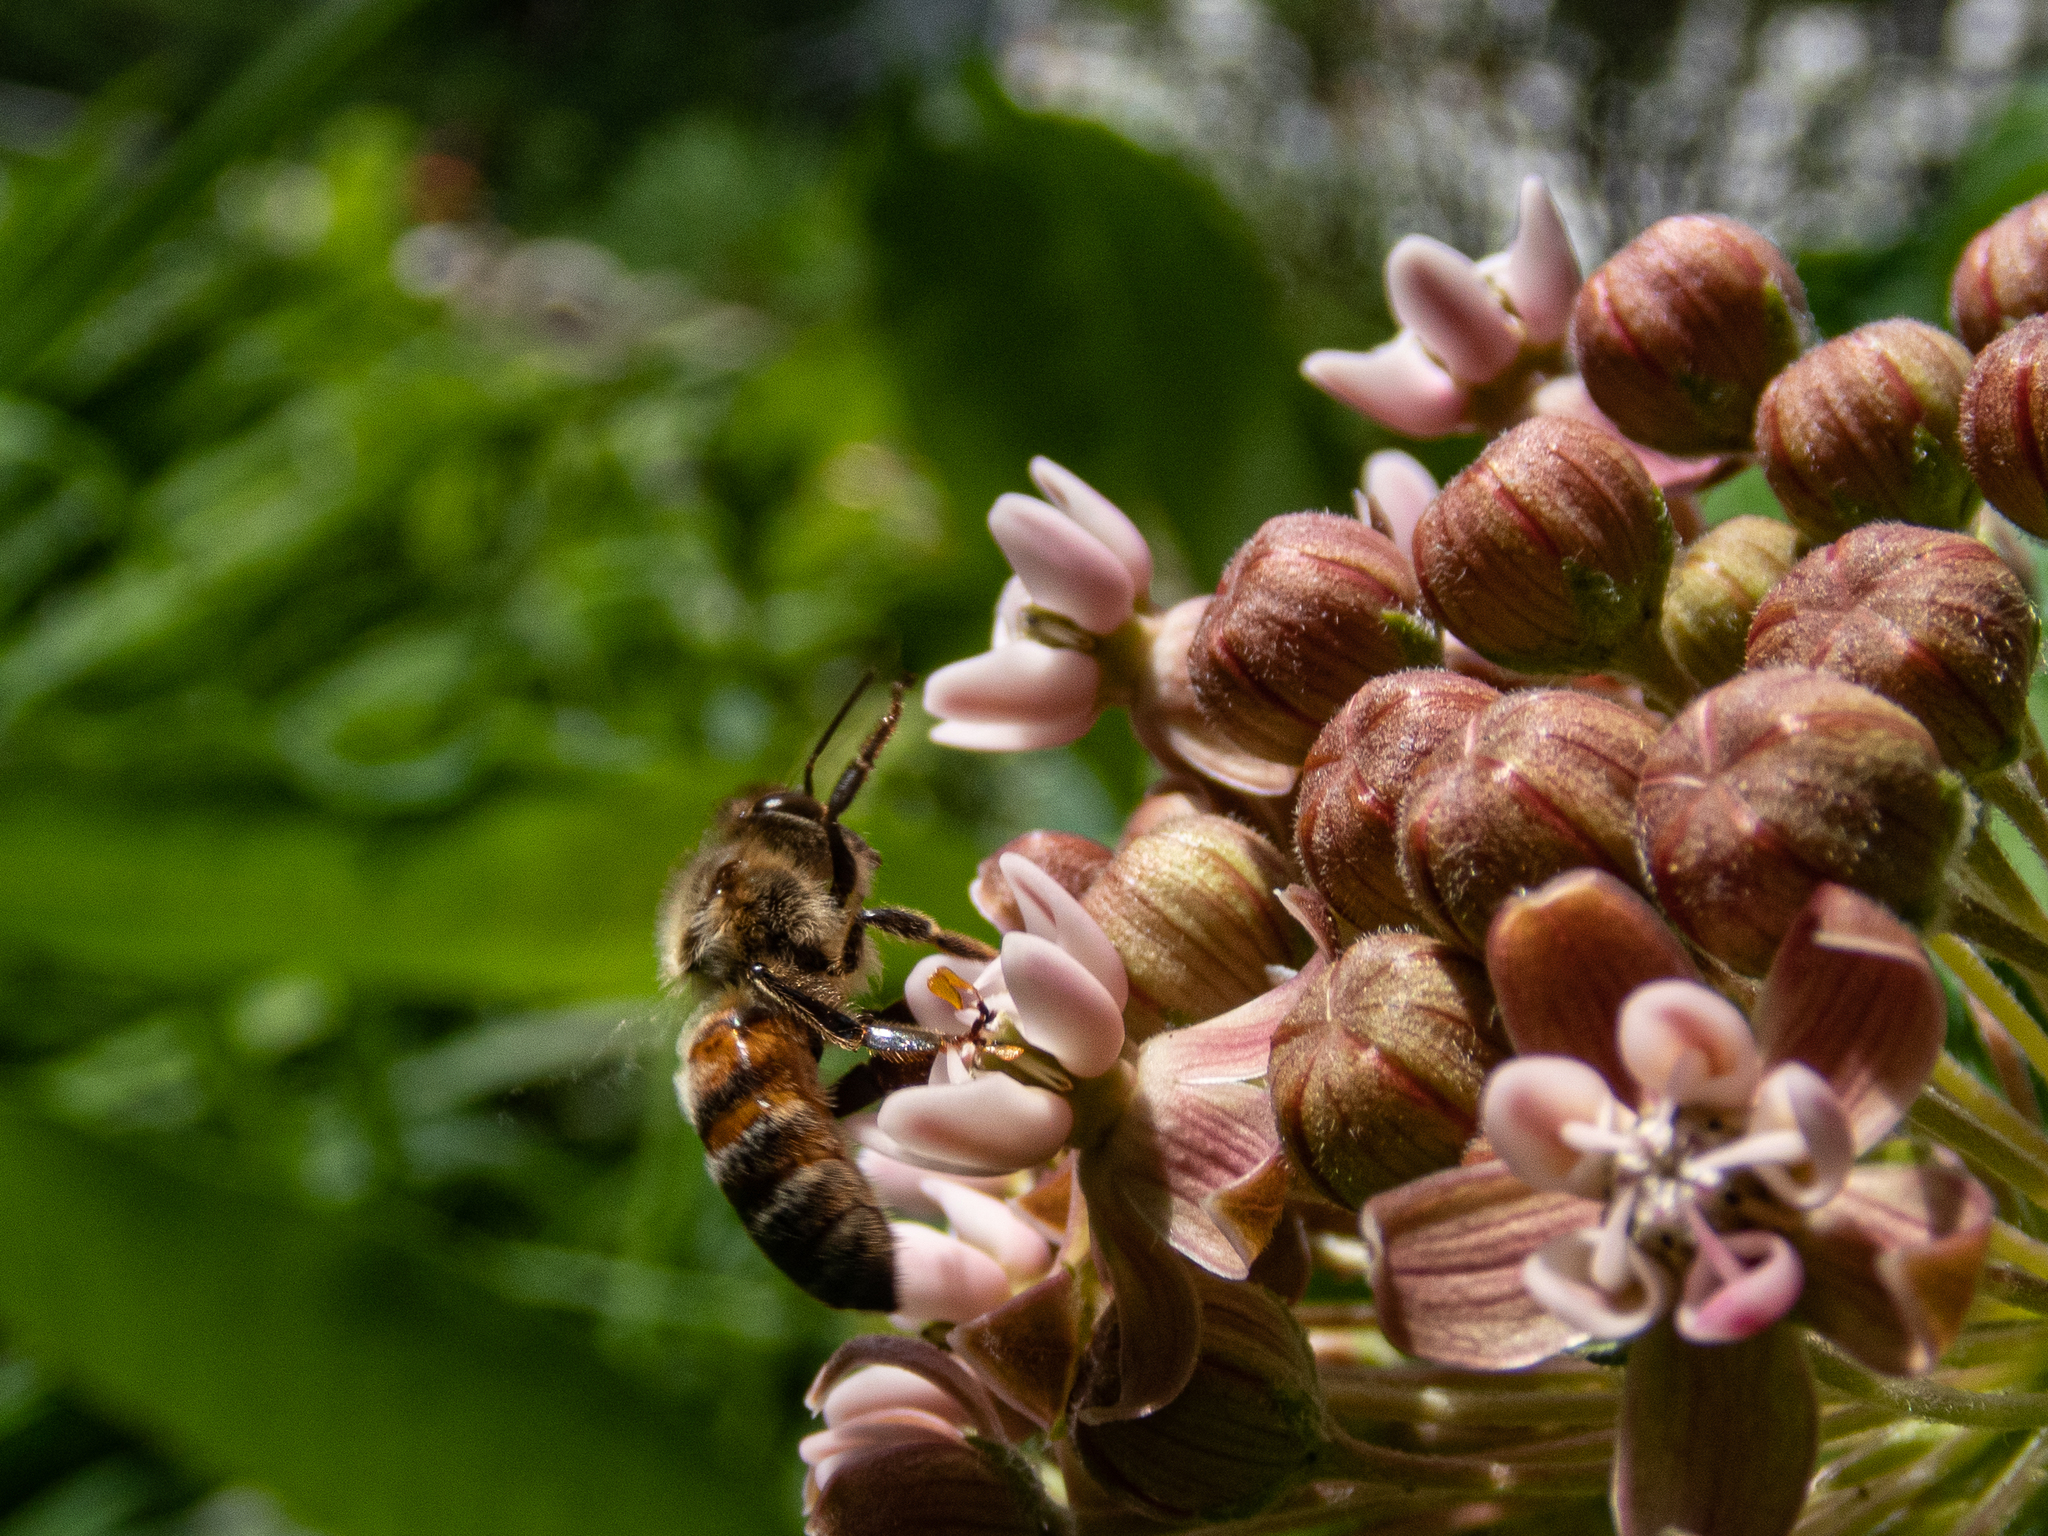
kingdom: Animalia
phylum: Arthropoda
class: Insecta
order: Hymenoptera
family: Apidae
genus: Apis
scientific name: Apis mellifera
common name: Honey bee
